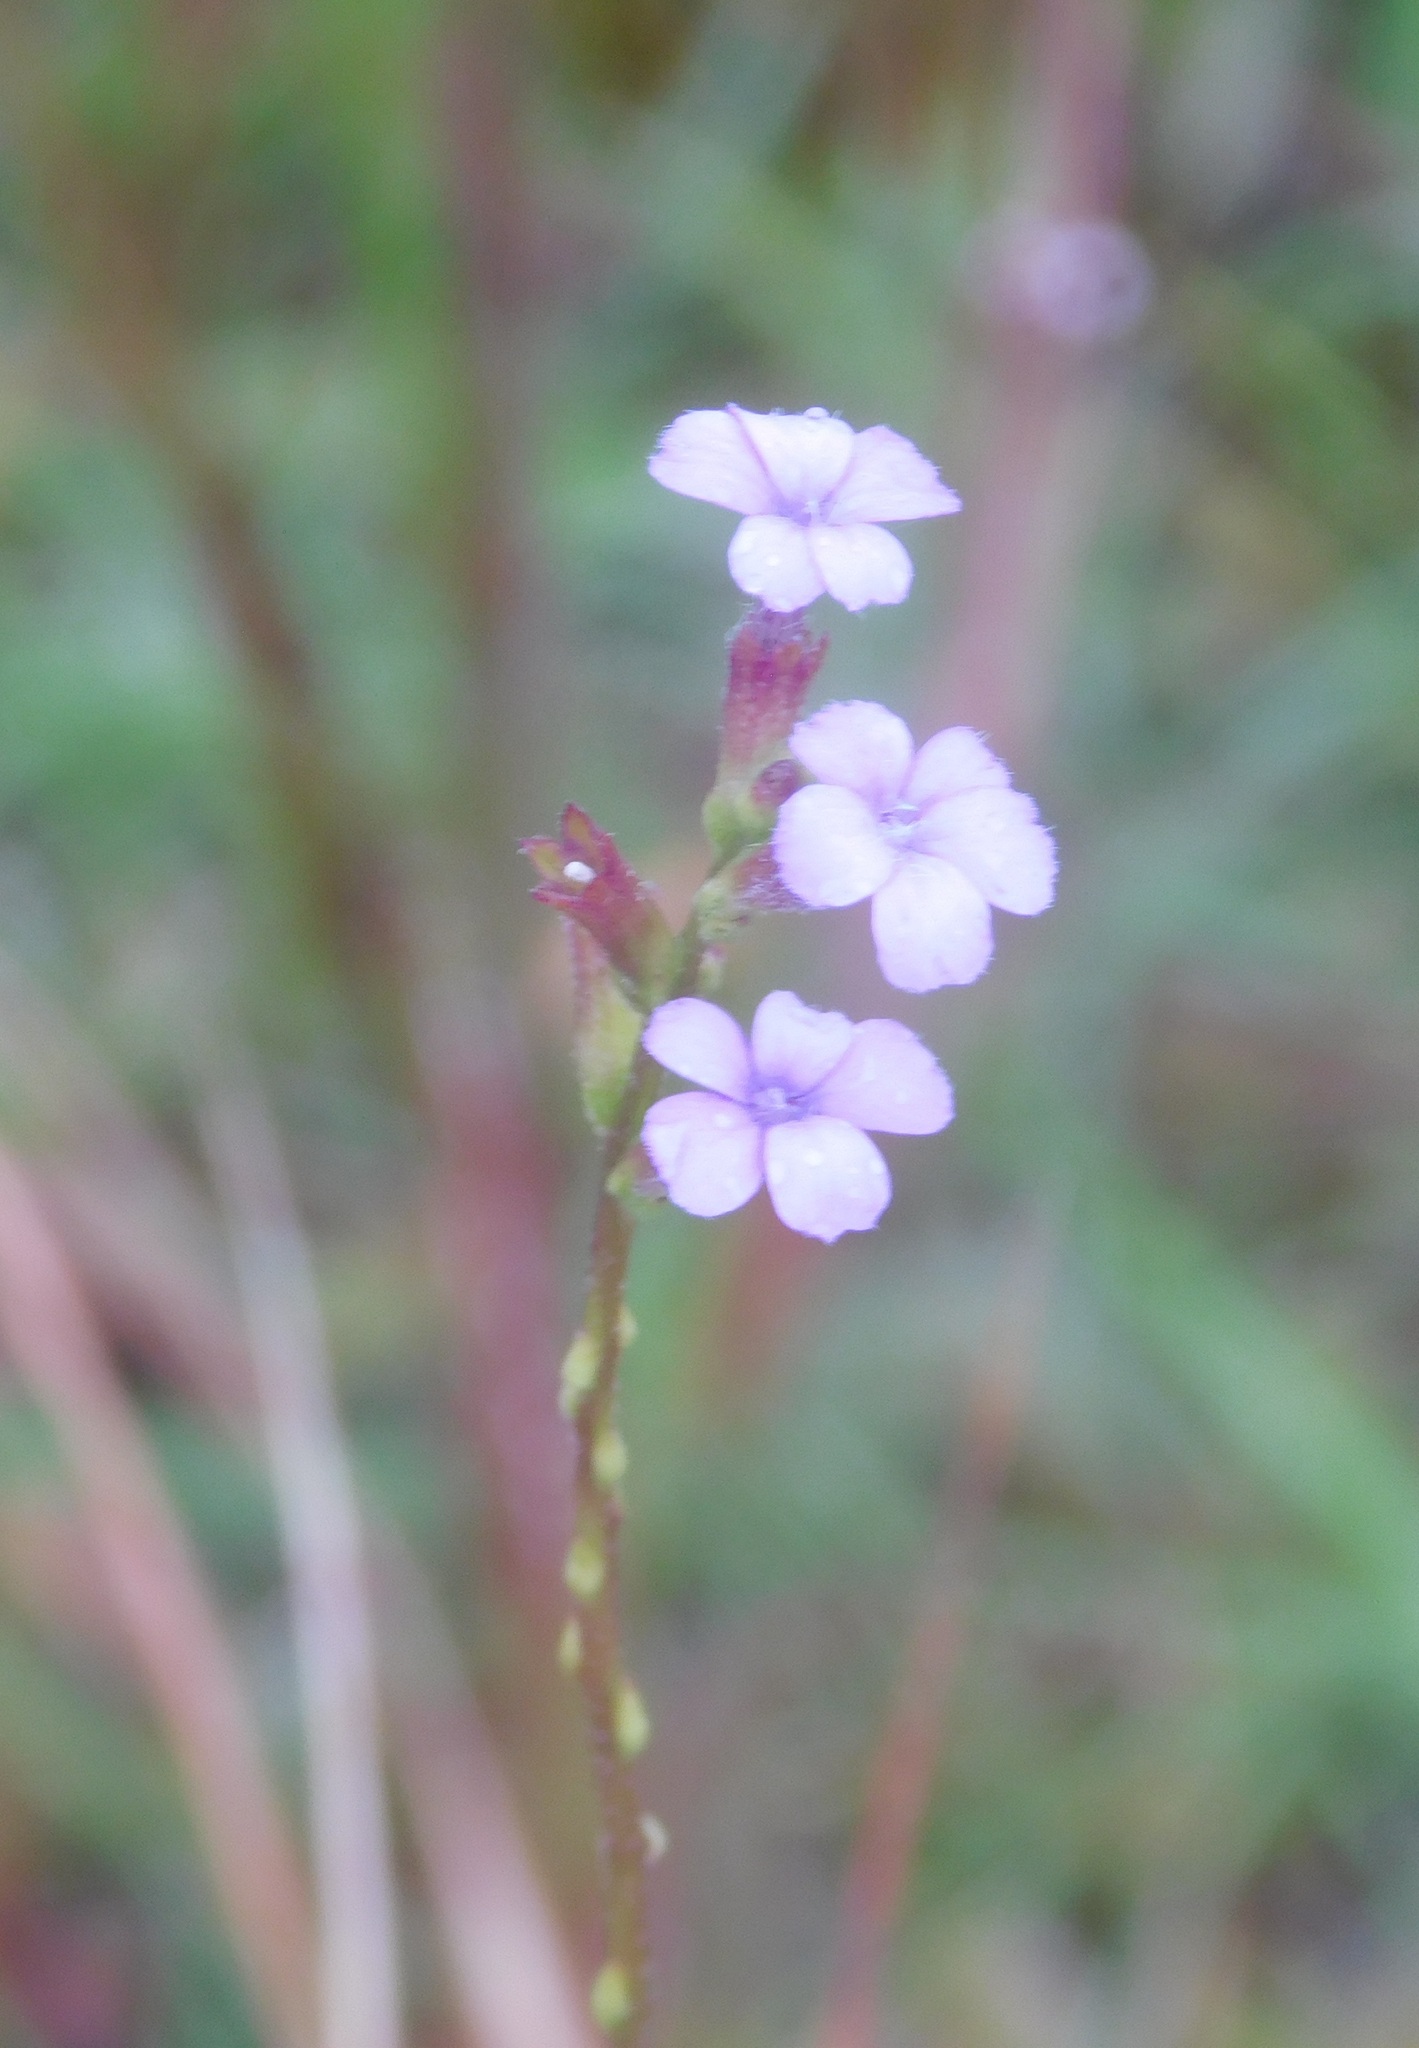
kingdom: Plantae
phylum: Tracheophyta
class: Magnoliopsida
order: Lamiales
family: Orobanchaceae
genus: Buchnera
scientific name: Buchnera floridana
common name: Florida bluehearts
